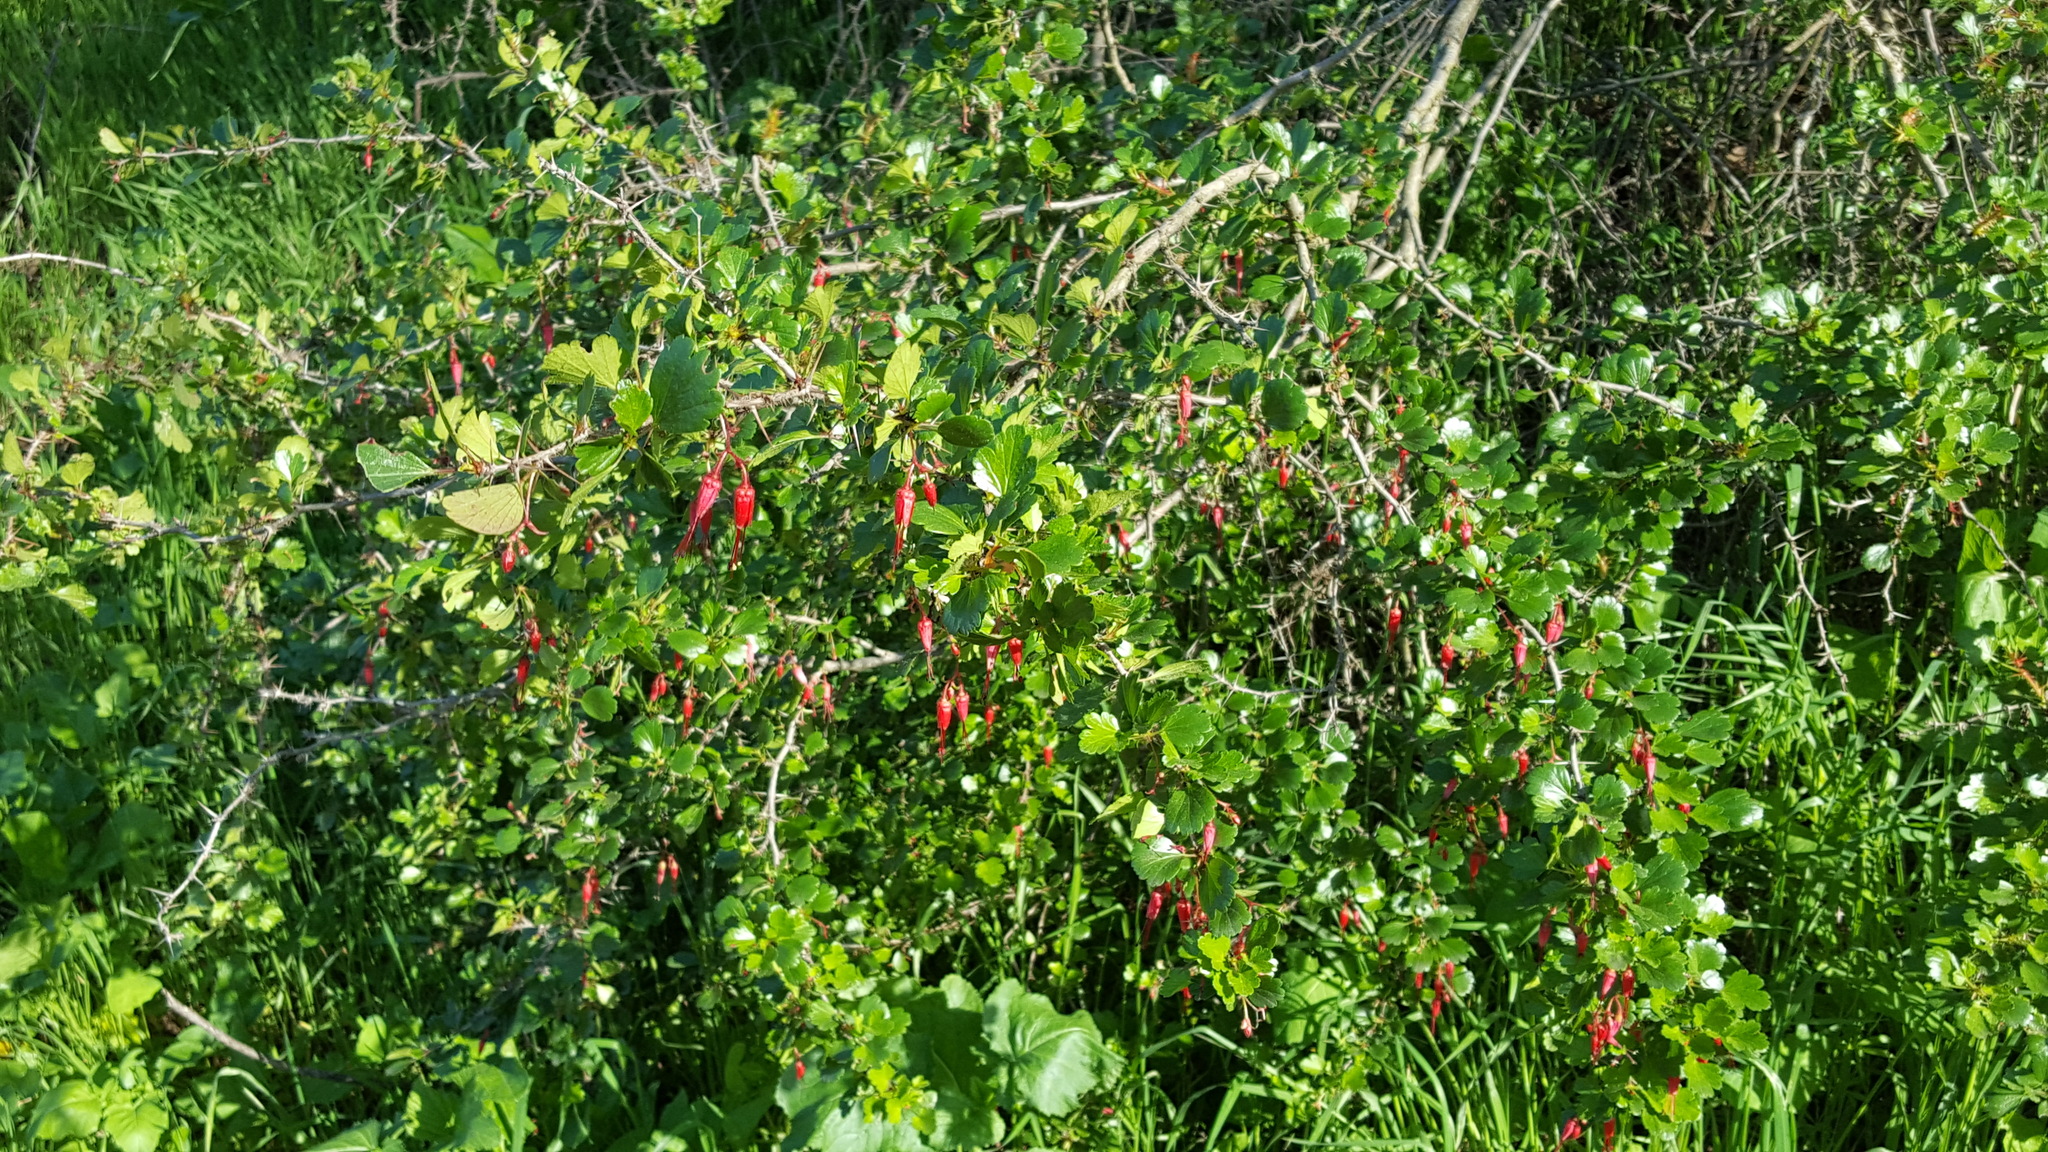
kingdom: Plantae
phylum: Tracheophyta
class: Magnoliopsida
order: Saxifragales
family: Grossulariaceae
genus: Ribes
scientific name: Ribes speciosum
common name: Fuchsia-flower gooseberry
